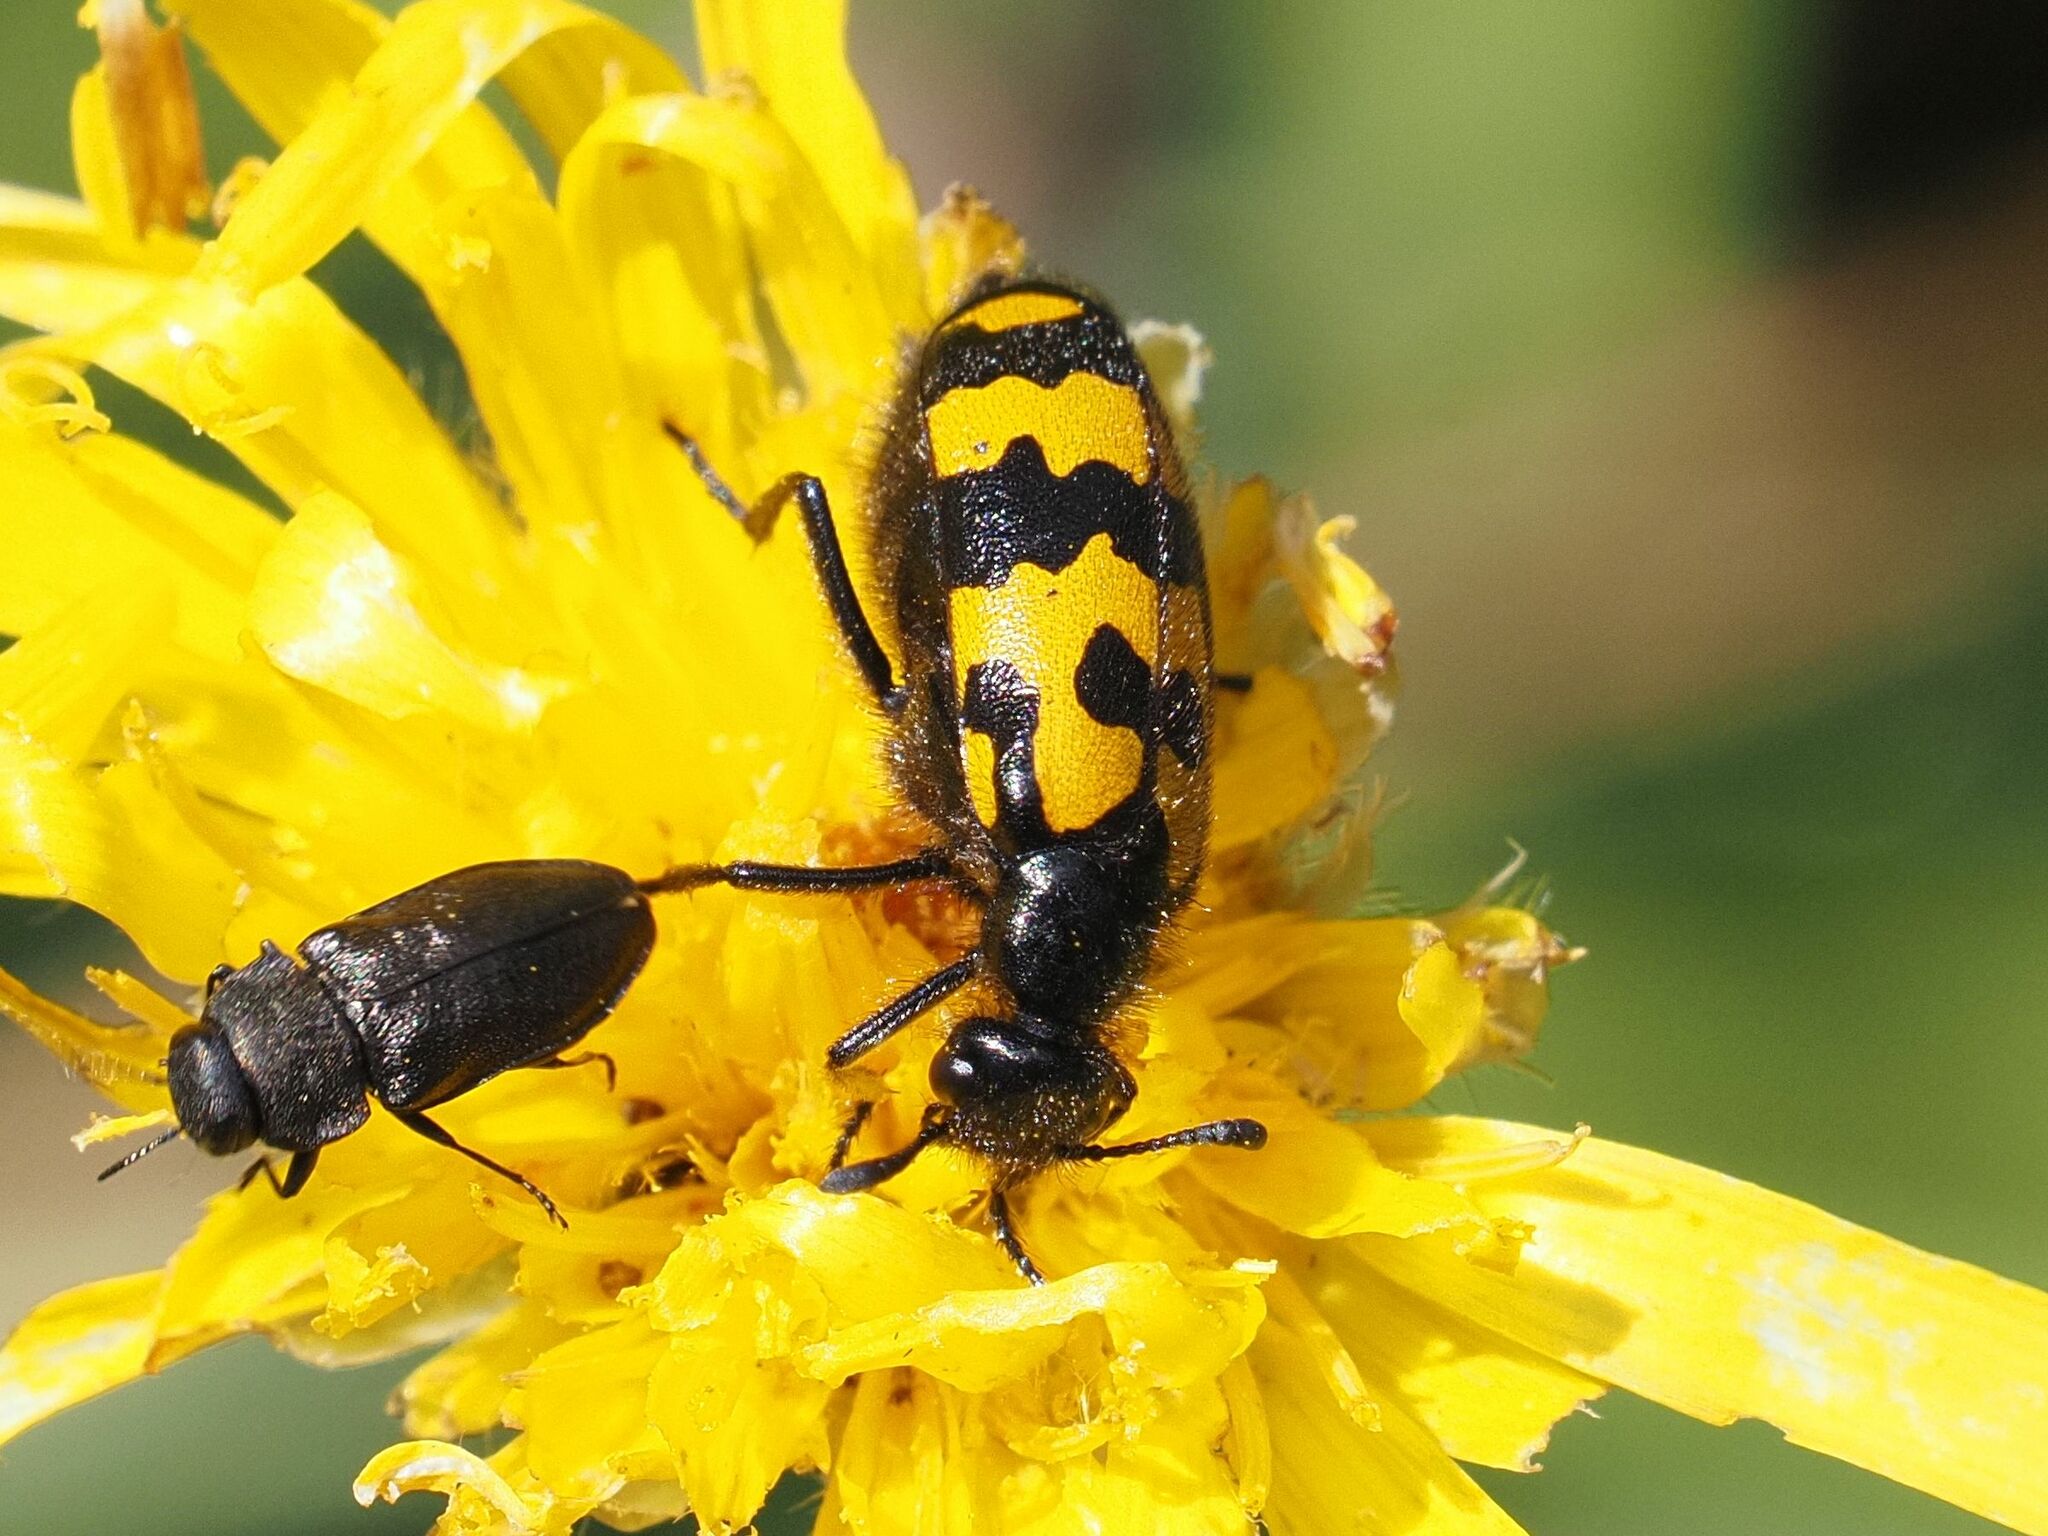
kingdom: Animalia
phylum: Arthropoda
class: Insecta
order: Coleoptera
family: Meloidae
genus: Hycleus
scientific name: Hycleus polymorphus
